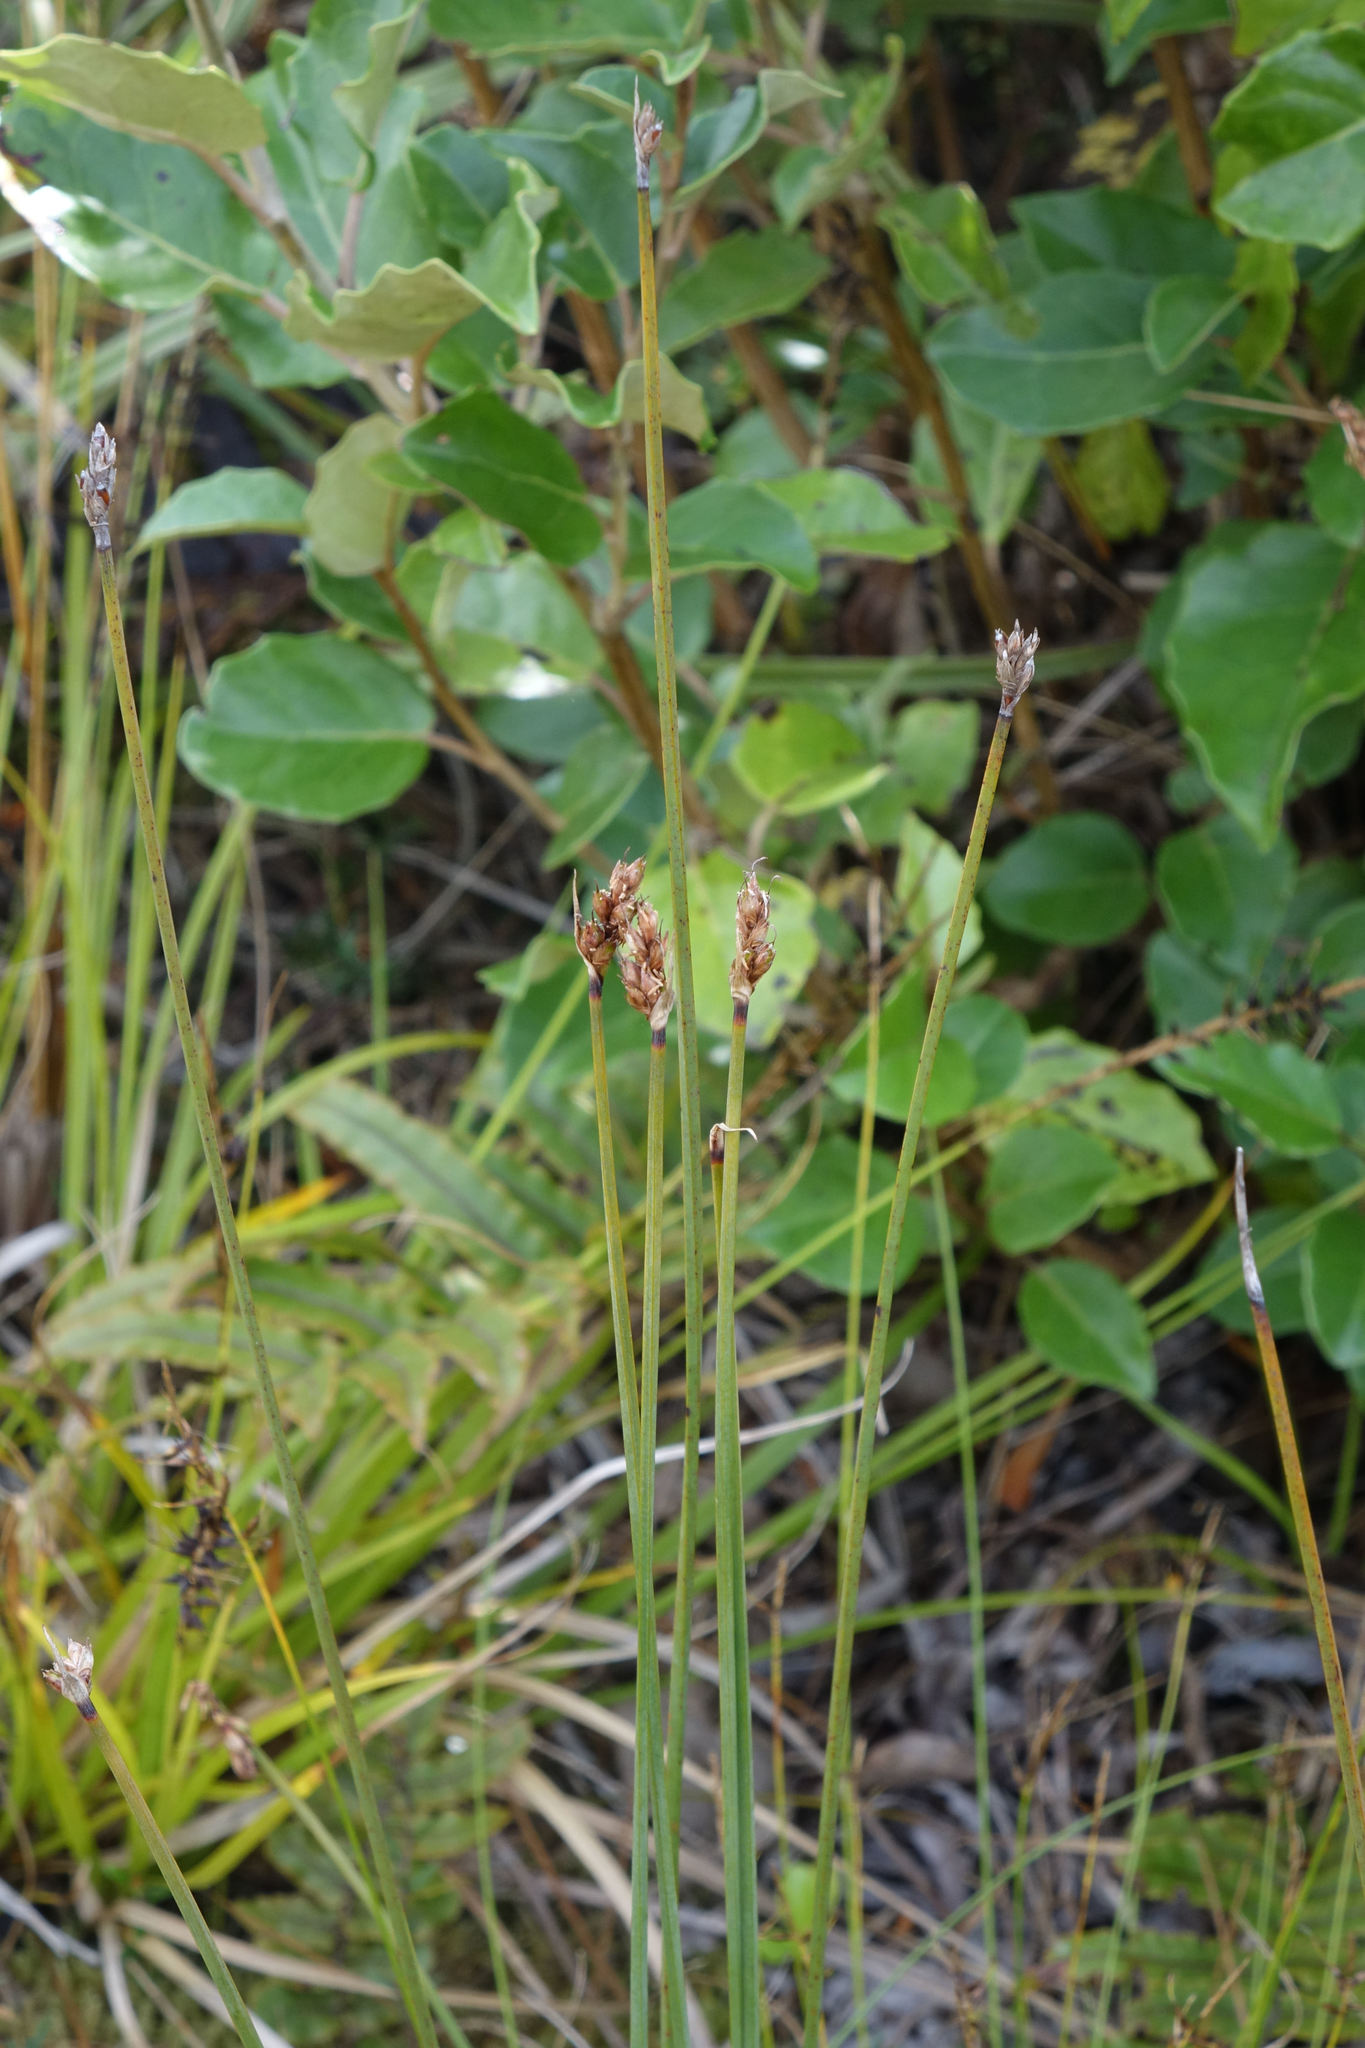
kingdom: Plantae
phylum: Tracheophyta
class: Liliopsida
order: Poales
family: Cyperaceae
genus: Lepidosperma
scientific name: Lepidosperma australe
